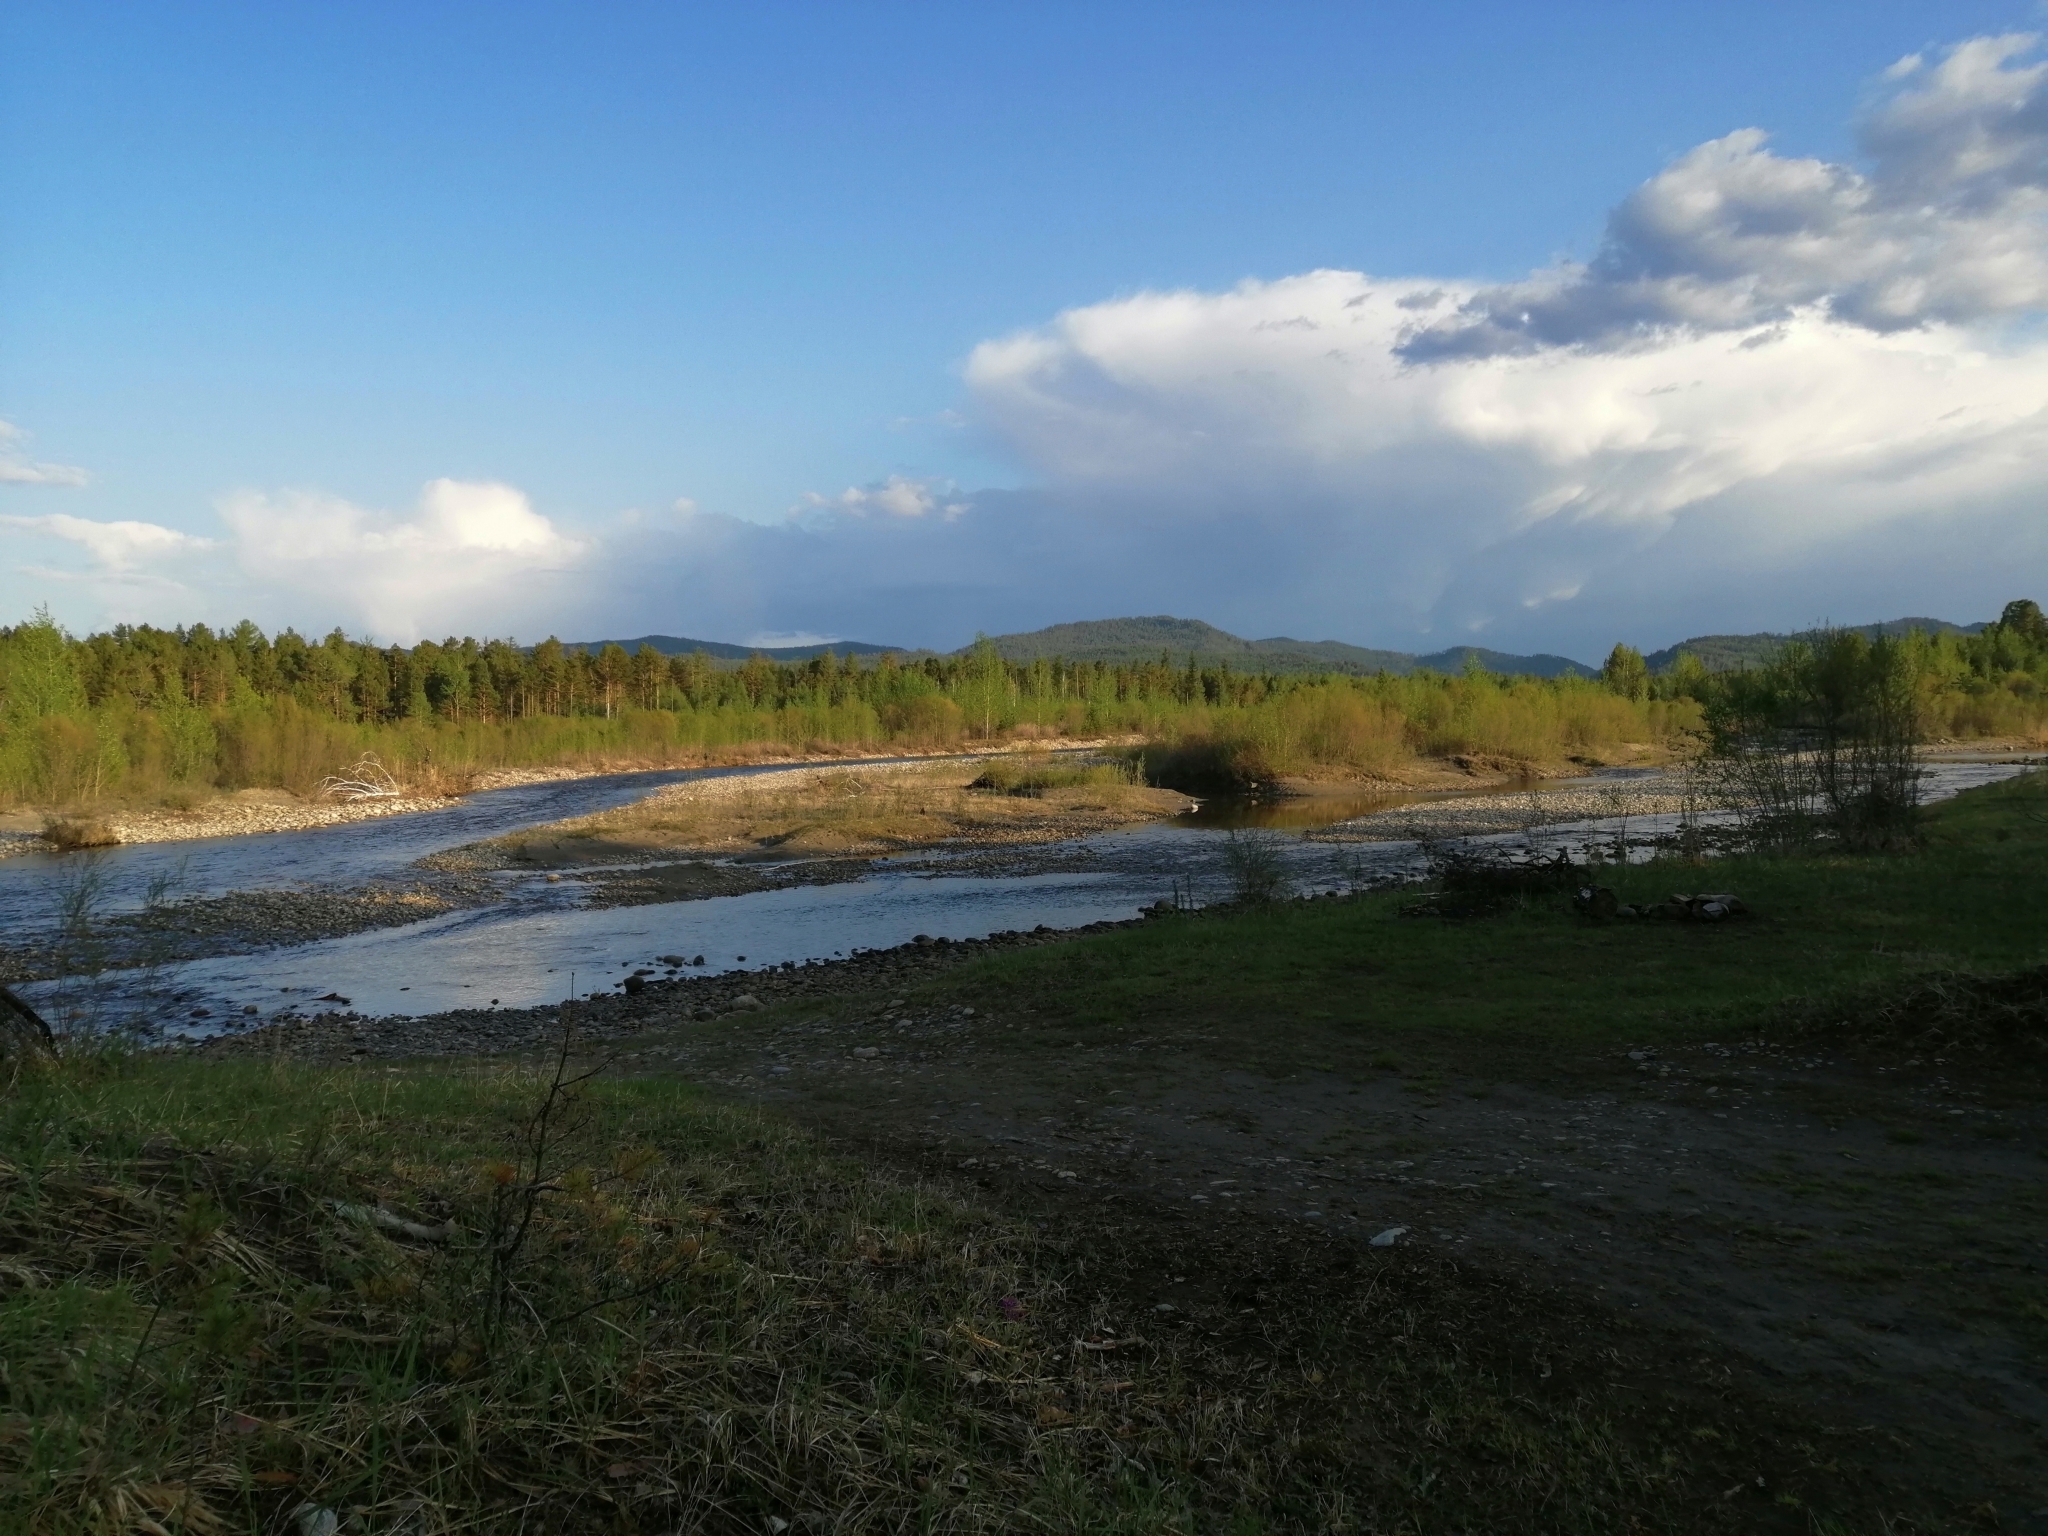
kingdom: Plantae
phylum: Tracheophyta
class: Pinopsida
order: Pinales
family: Pinaceae
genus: Pinus
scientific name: Pinus sylvestris
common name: Scots pine
